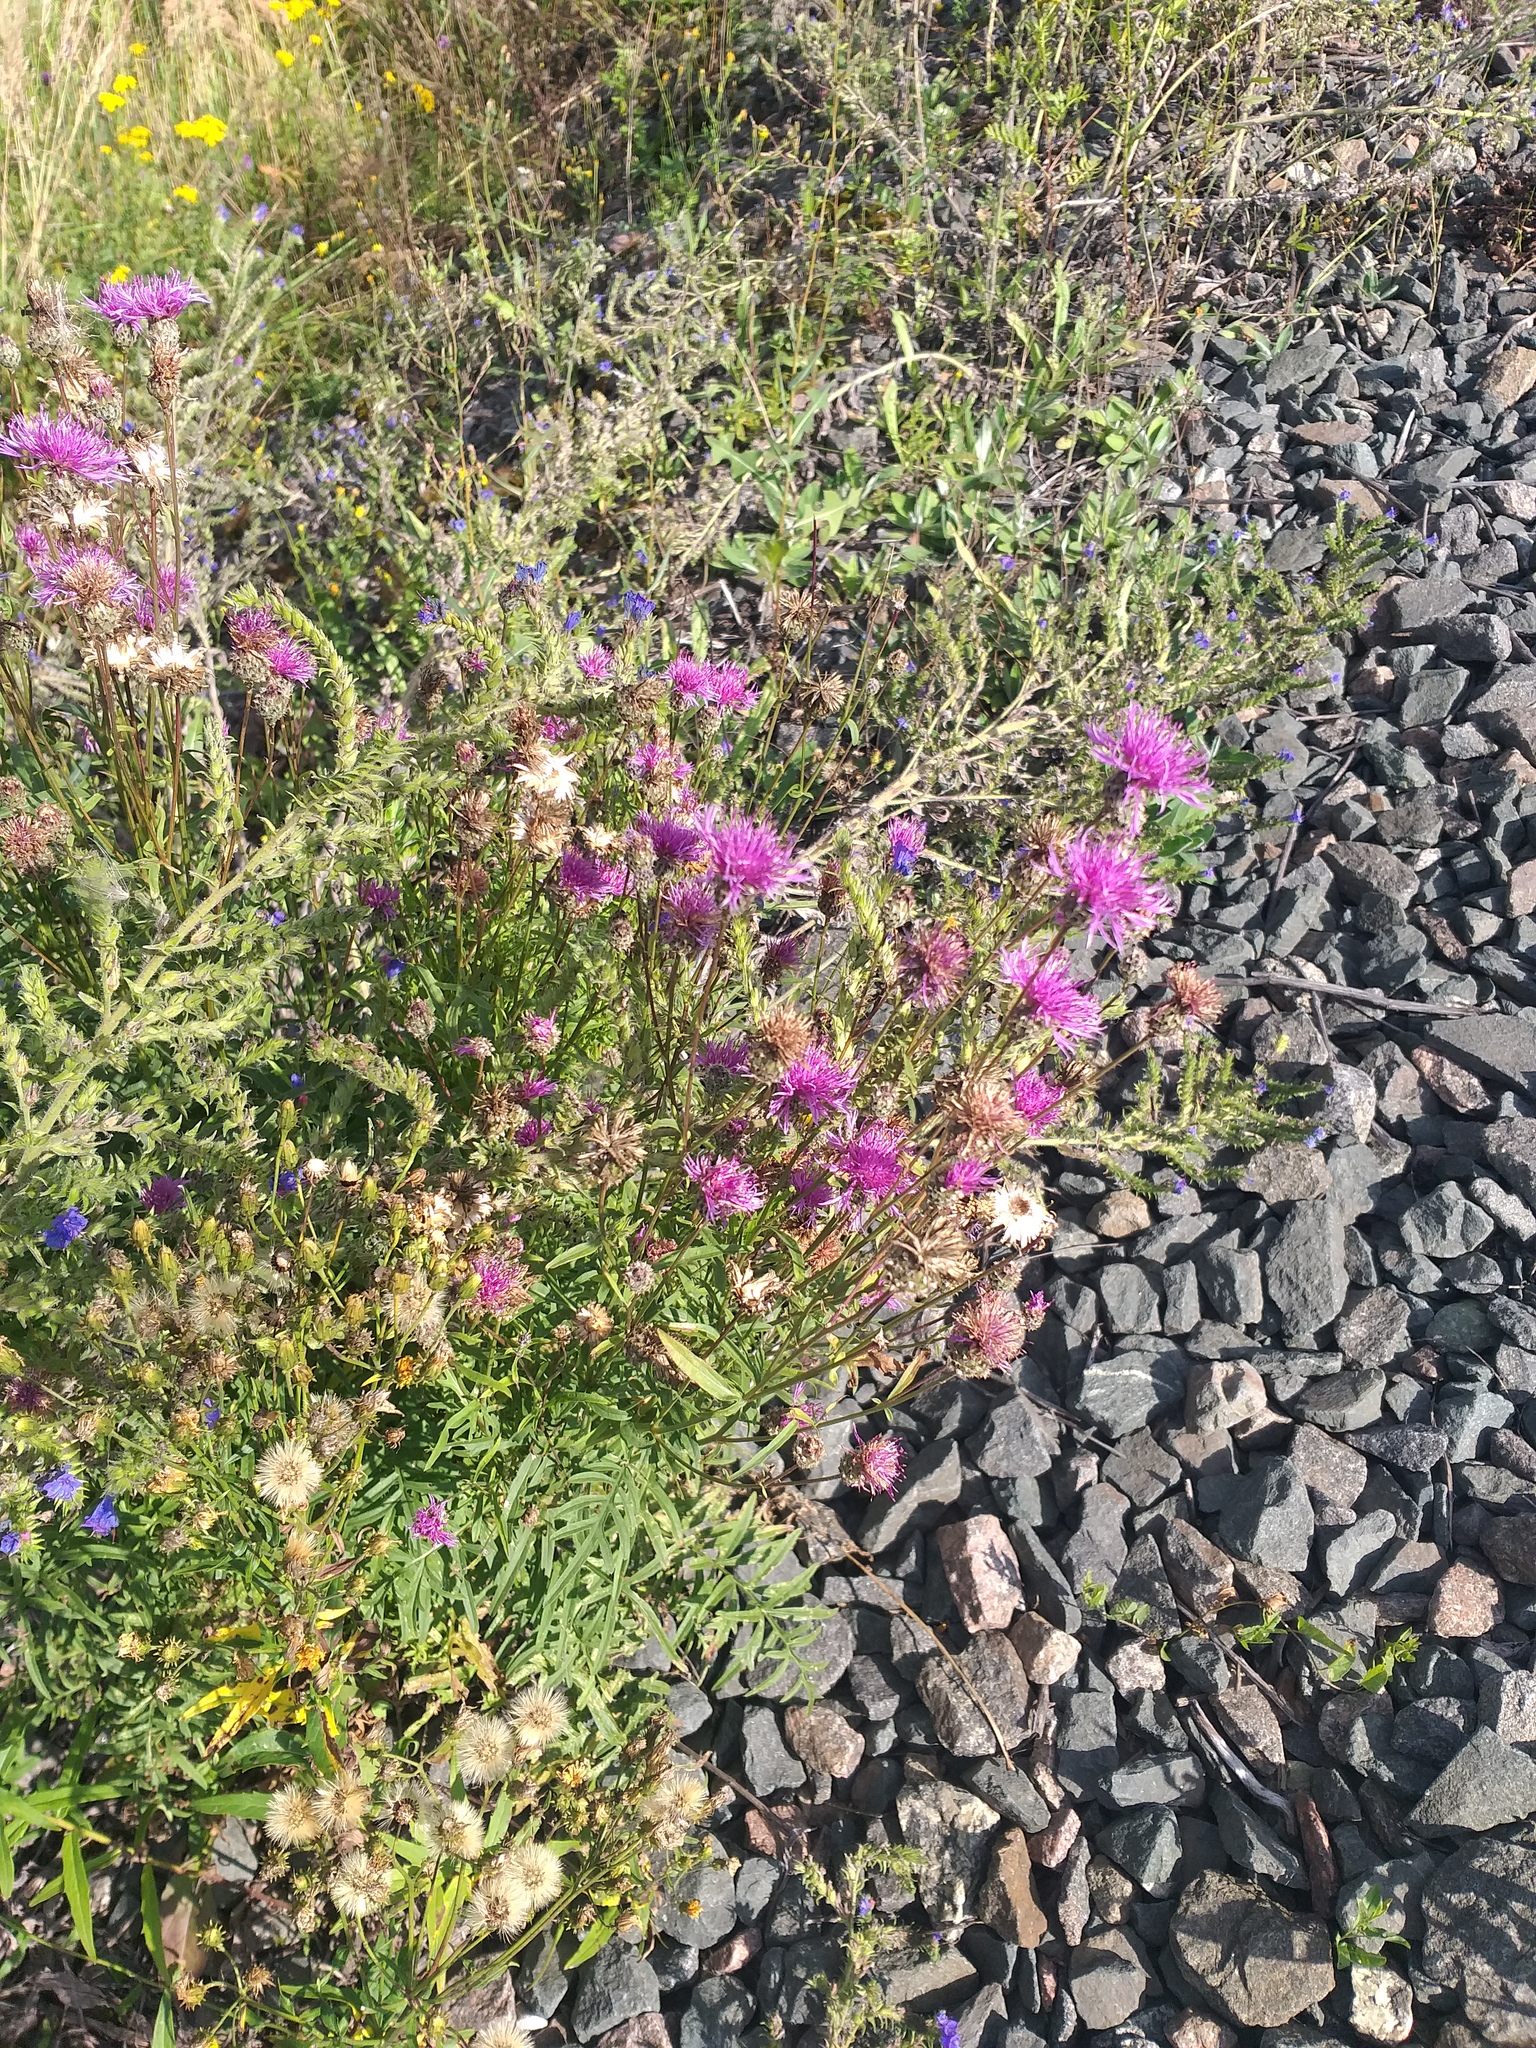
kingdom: Plantae
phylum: Tracheophyta
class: Magnoliopsida
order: Asterales
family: Asteraceae
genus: Centaurea
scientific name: Centaurea scabiosa
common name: Greater knapweed
